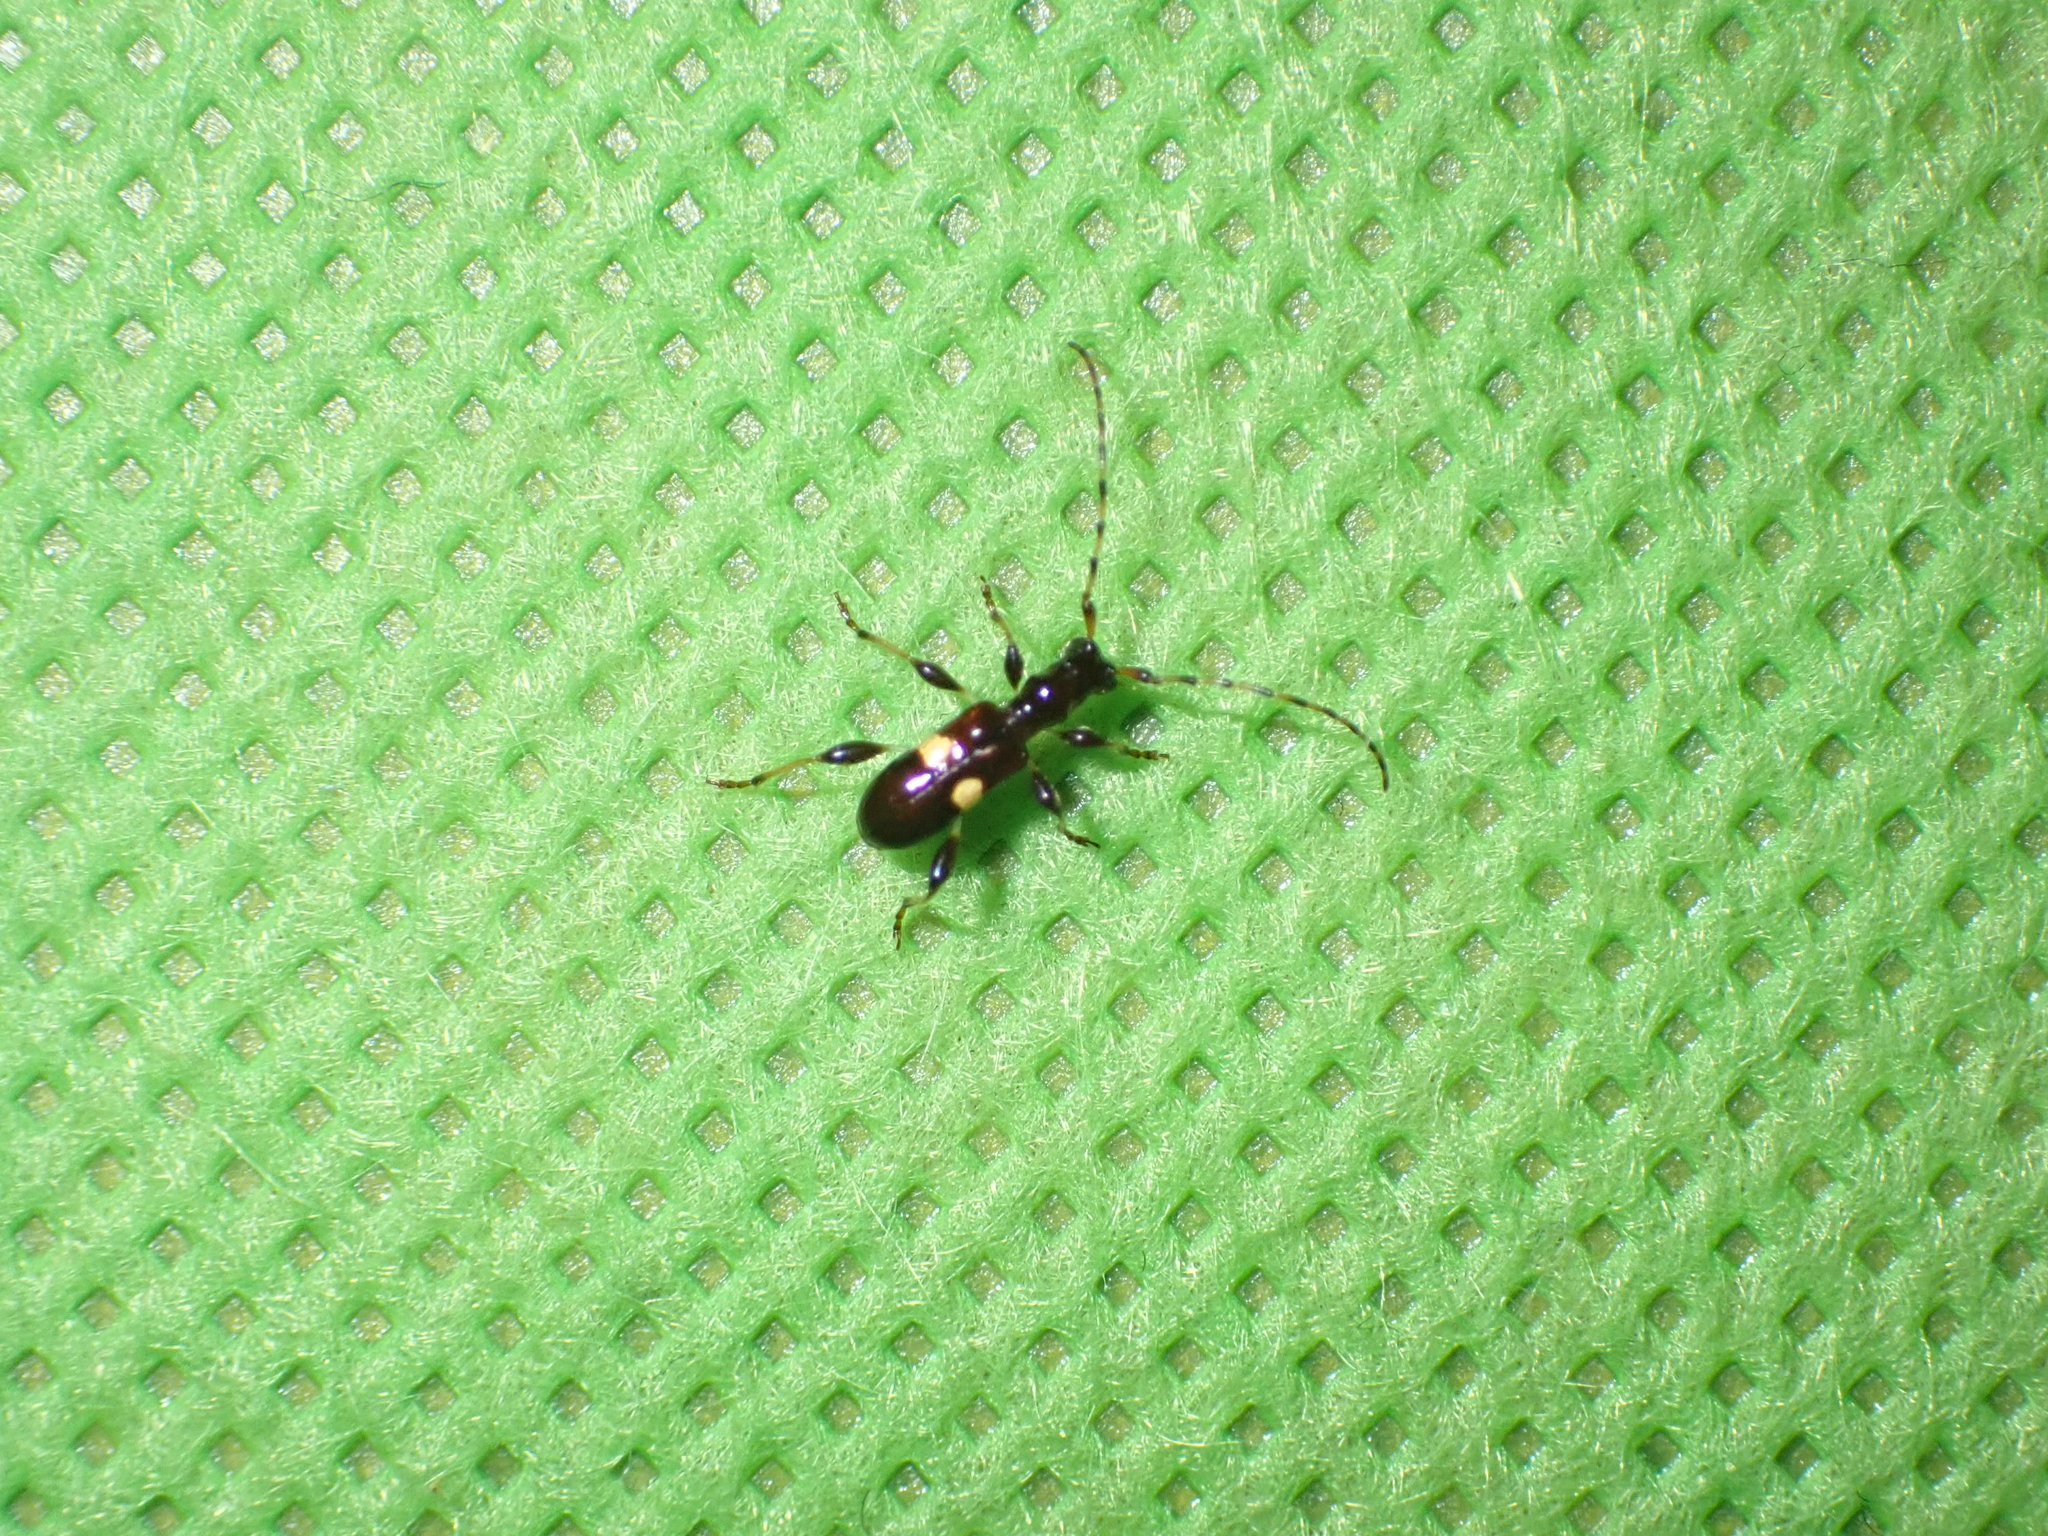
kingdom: Animalia
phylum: Arthropoda
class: Insecta
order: Coleoptera
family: Cerambycidae
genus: Zorion
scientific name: Zorion guttigerum
